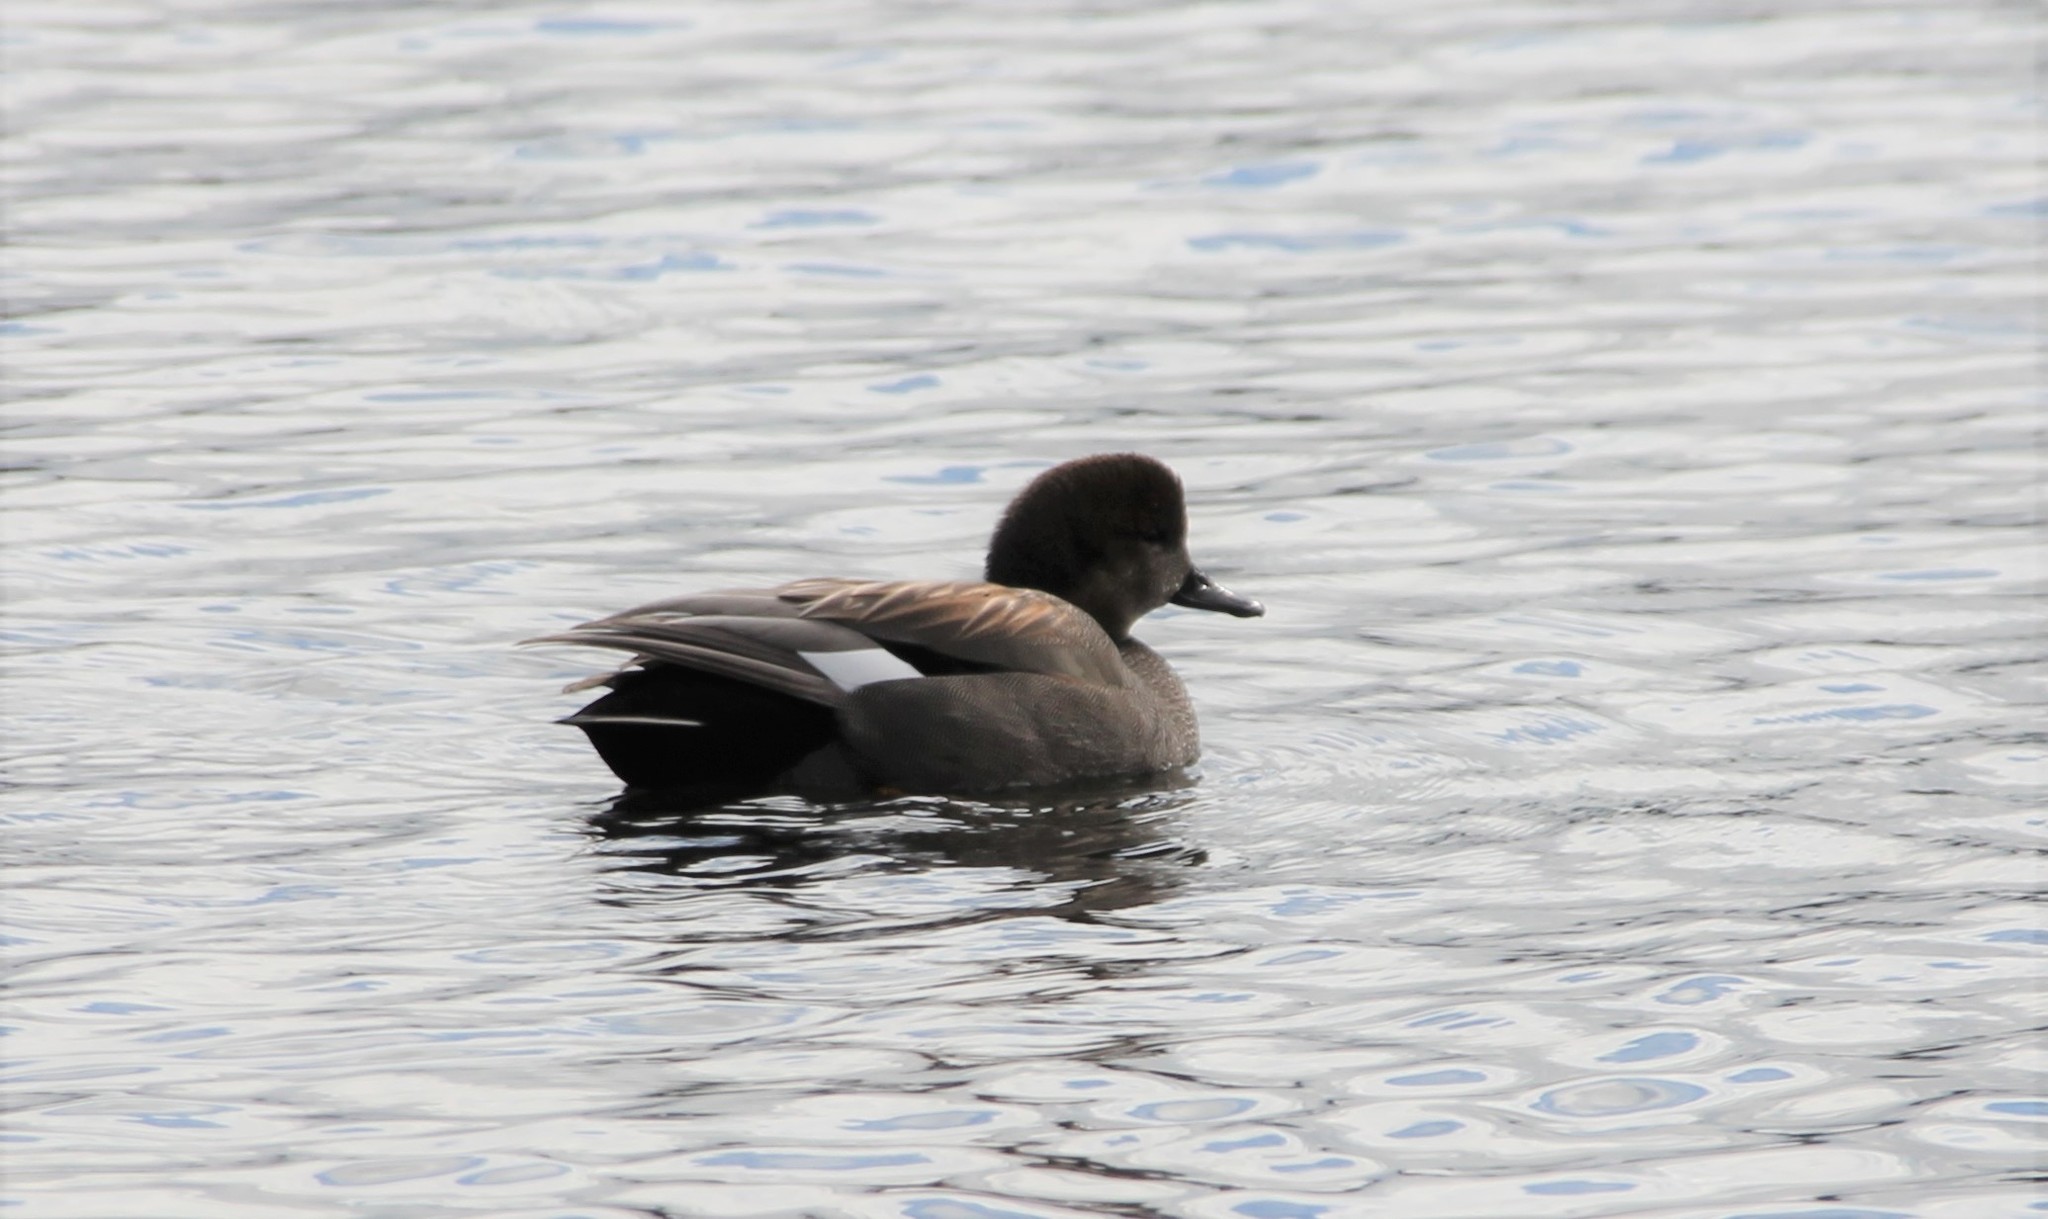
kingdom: Animalia
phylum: Chordata
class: Aves
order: Anseriformes
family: Anatidae
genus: Mareca
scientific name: Mareca strepera
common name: Gadwall
